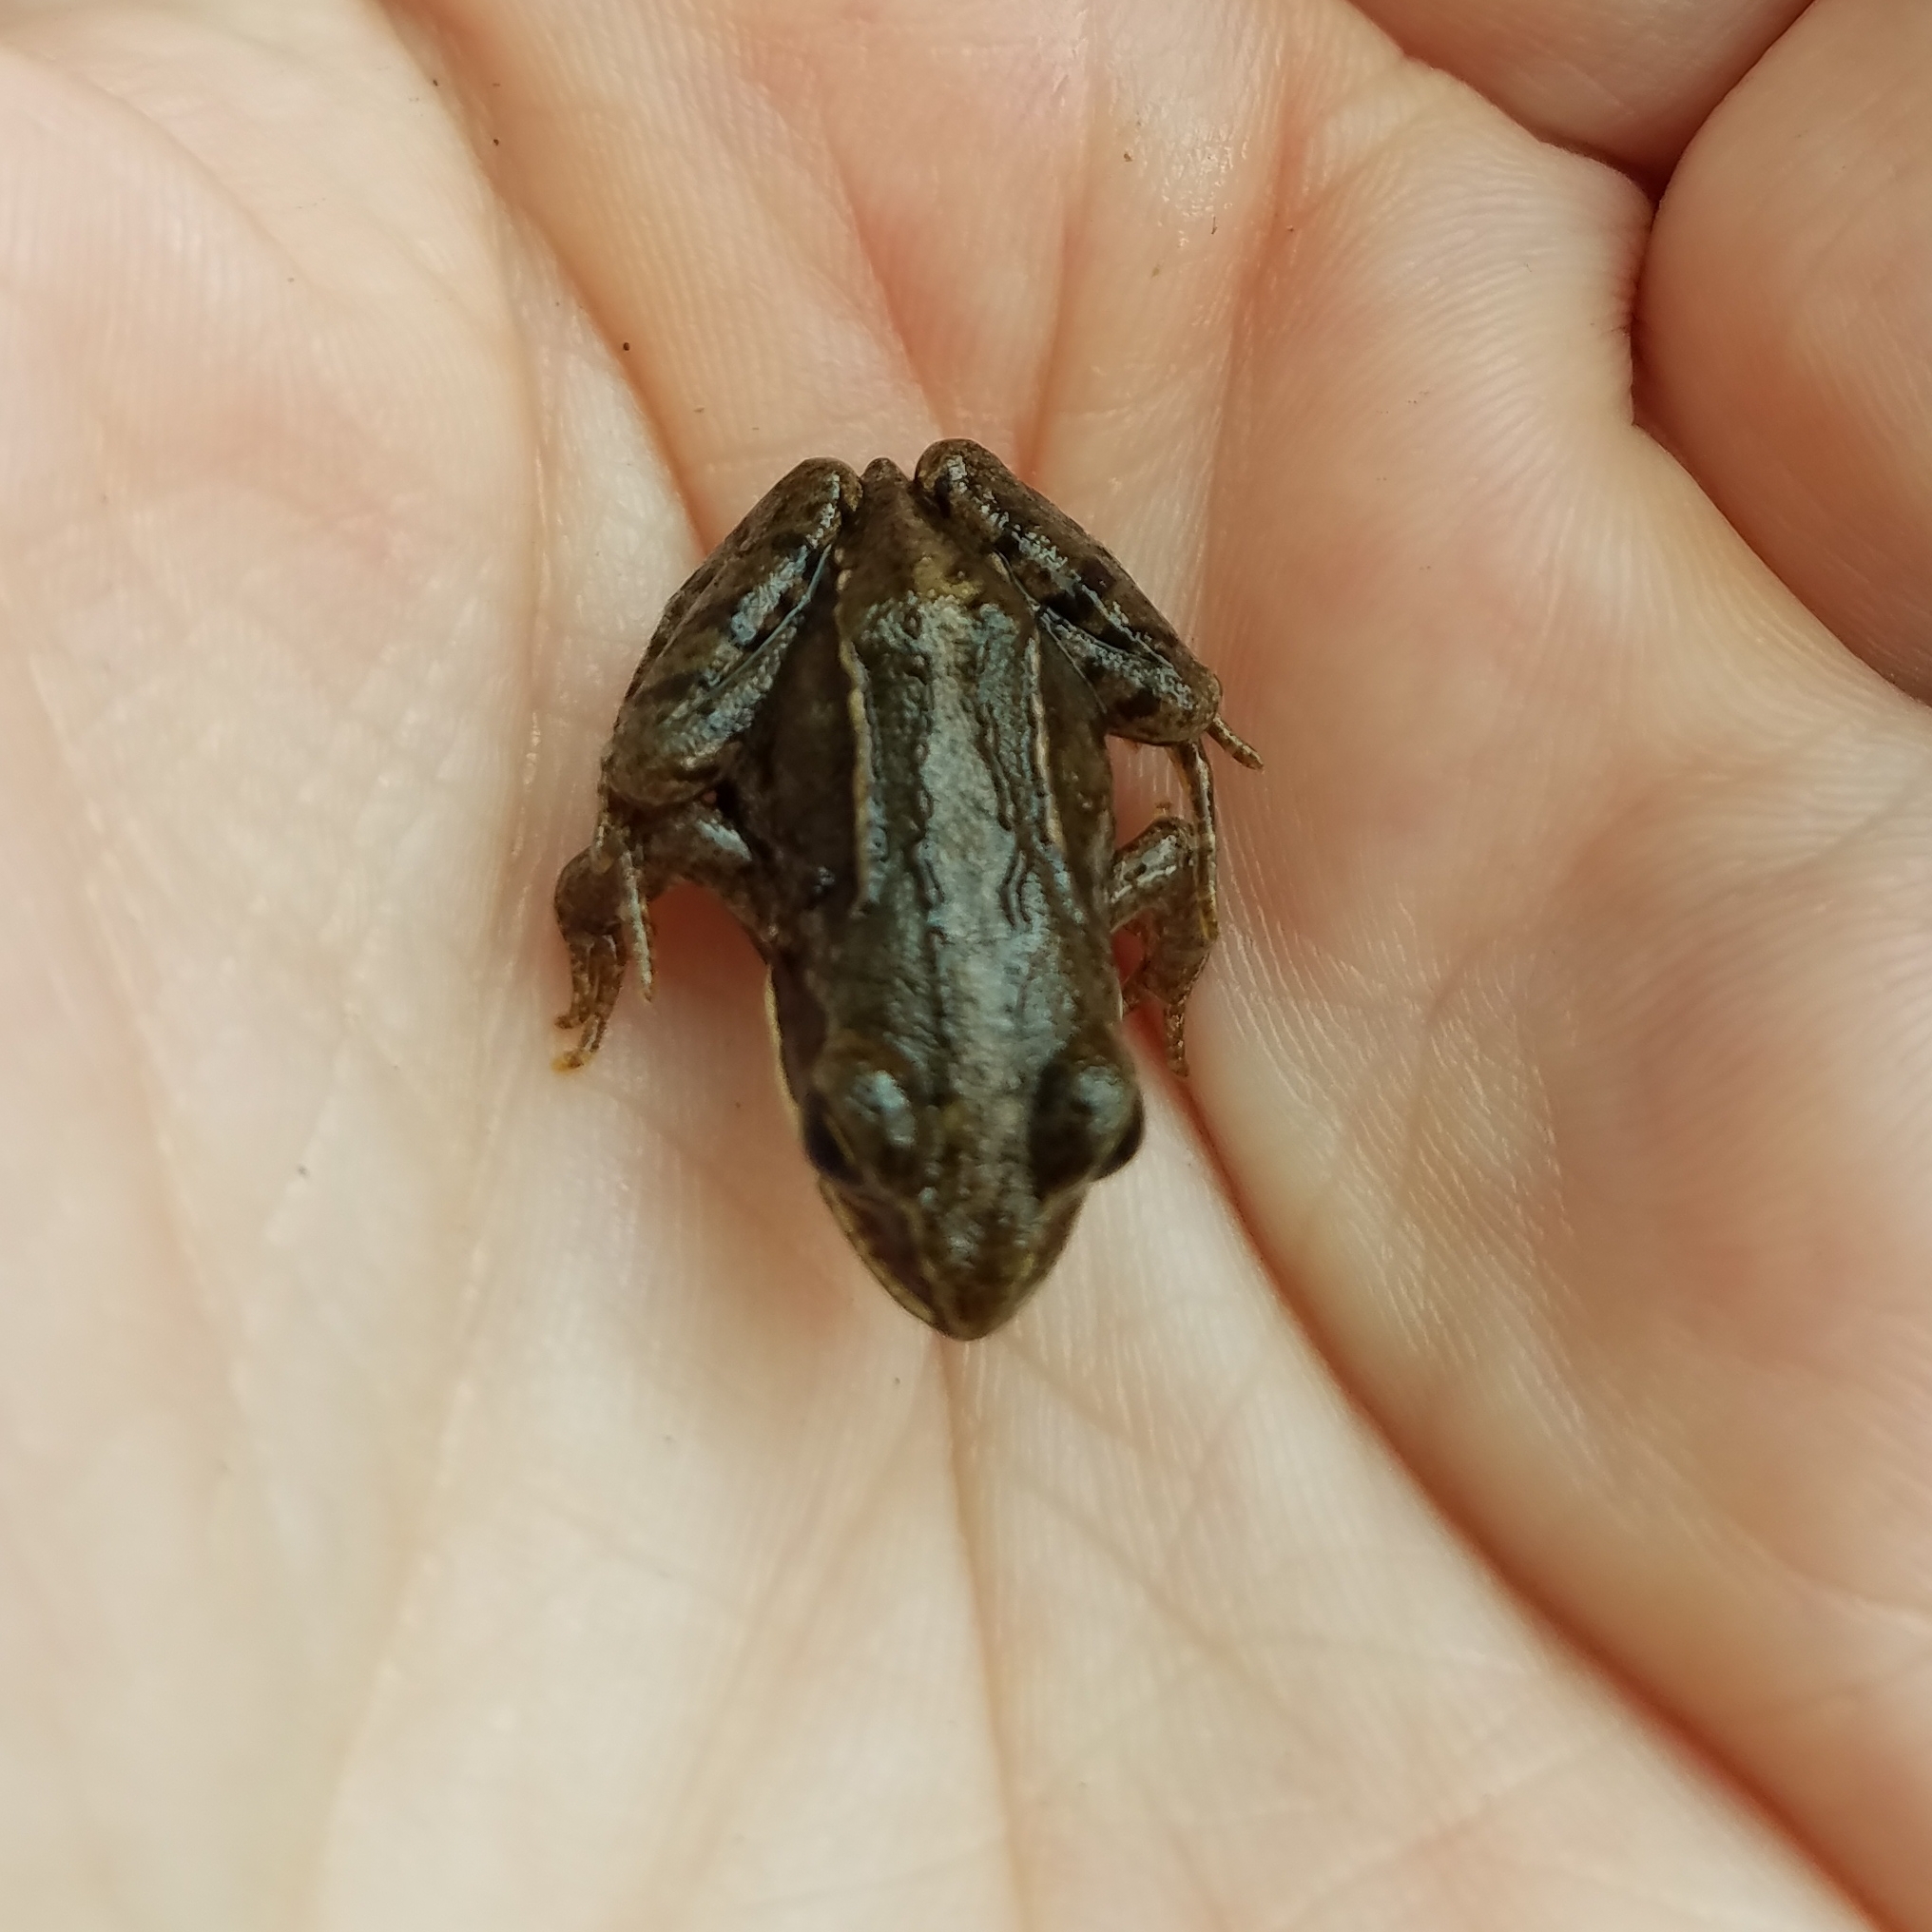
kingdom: Animalia
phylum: Chordata
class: Amphibia
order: Anura
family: Ranidae
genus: Rana
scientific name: Rana arvalis
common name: Moor frog
